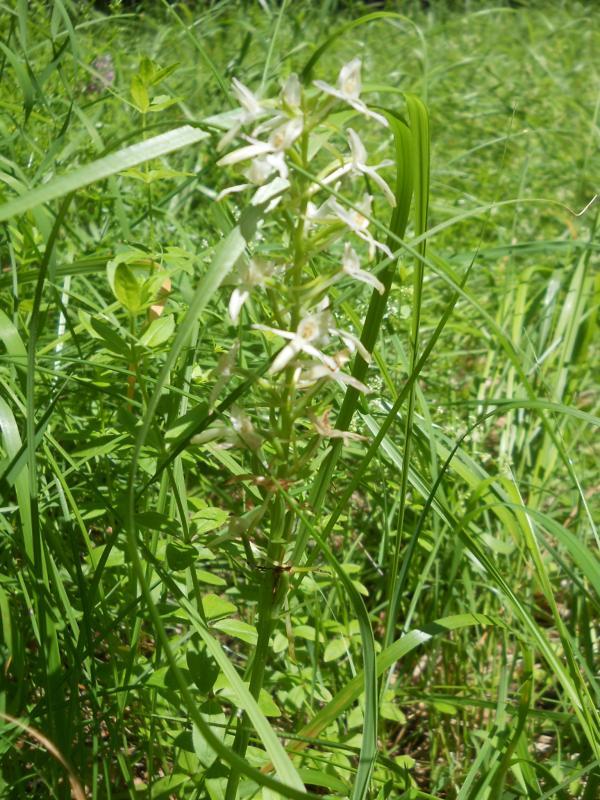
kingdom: Plantae
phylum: Tracheophyta
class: Liliopsida
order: Asparagales
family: Orchidaceae
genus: Platanthera
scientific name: Platanthera bifolia
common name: Lesser butterfly-orchid
